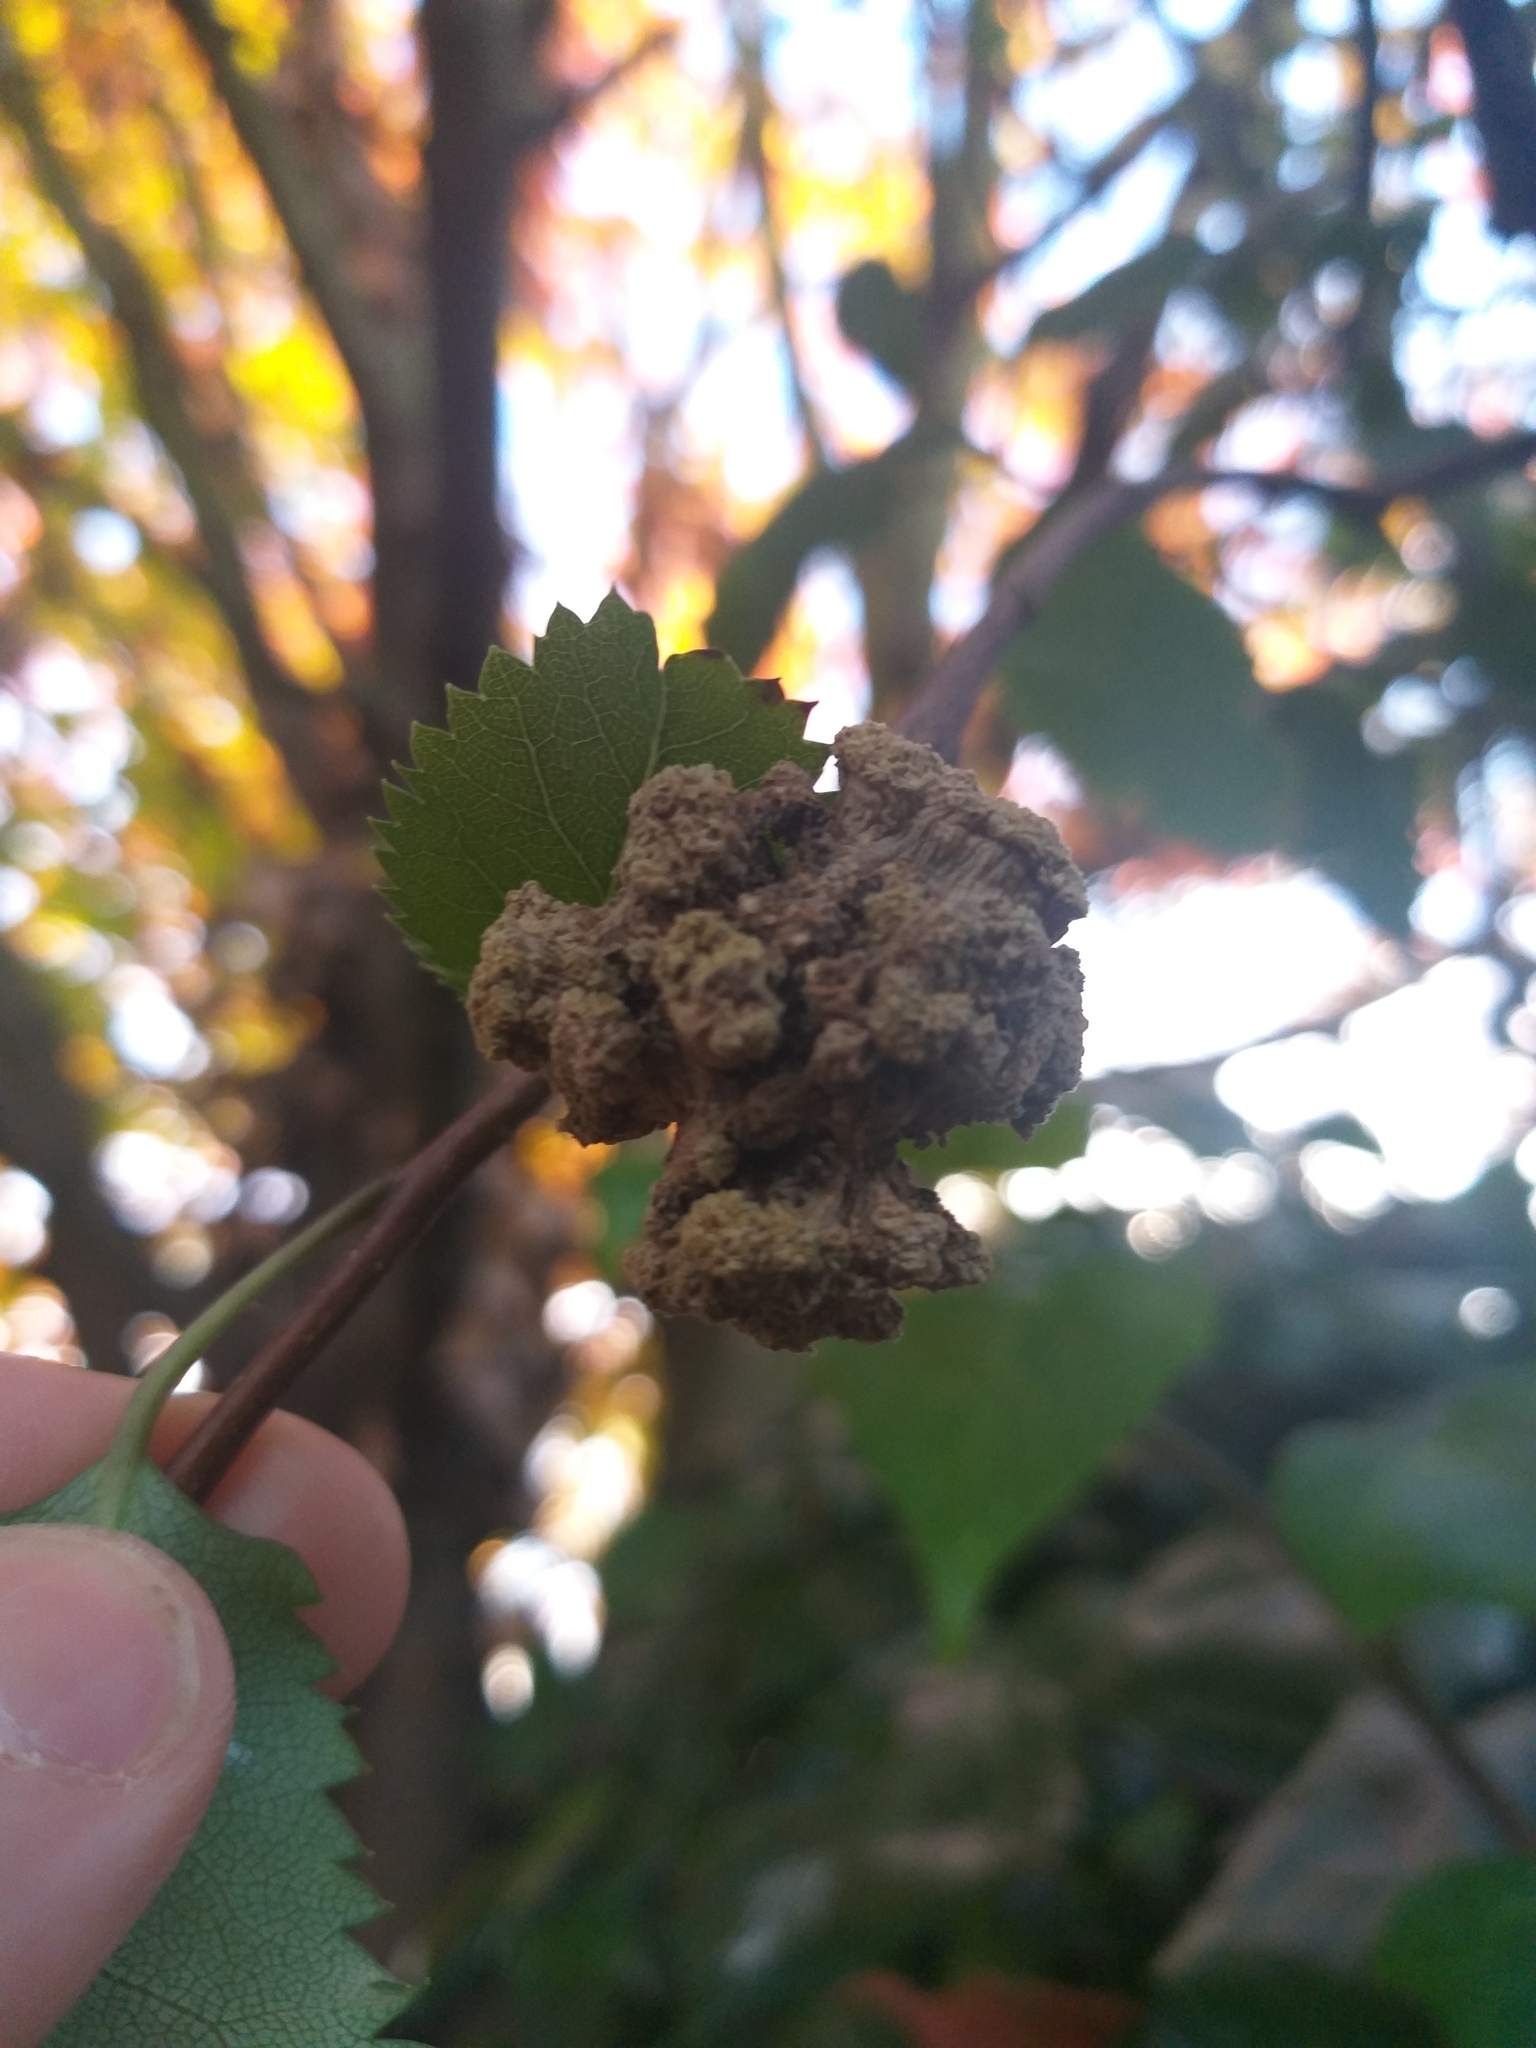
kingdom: Animalia
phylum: Arthropoda
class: Arachnida
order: Trombidiformes
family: Eriophyidae
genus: Eriophyes
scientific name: Eriophyes hoheriae
